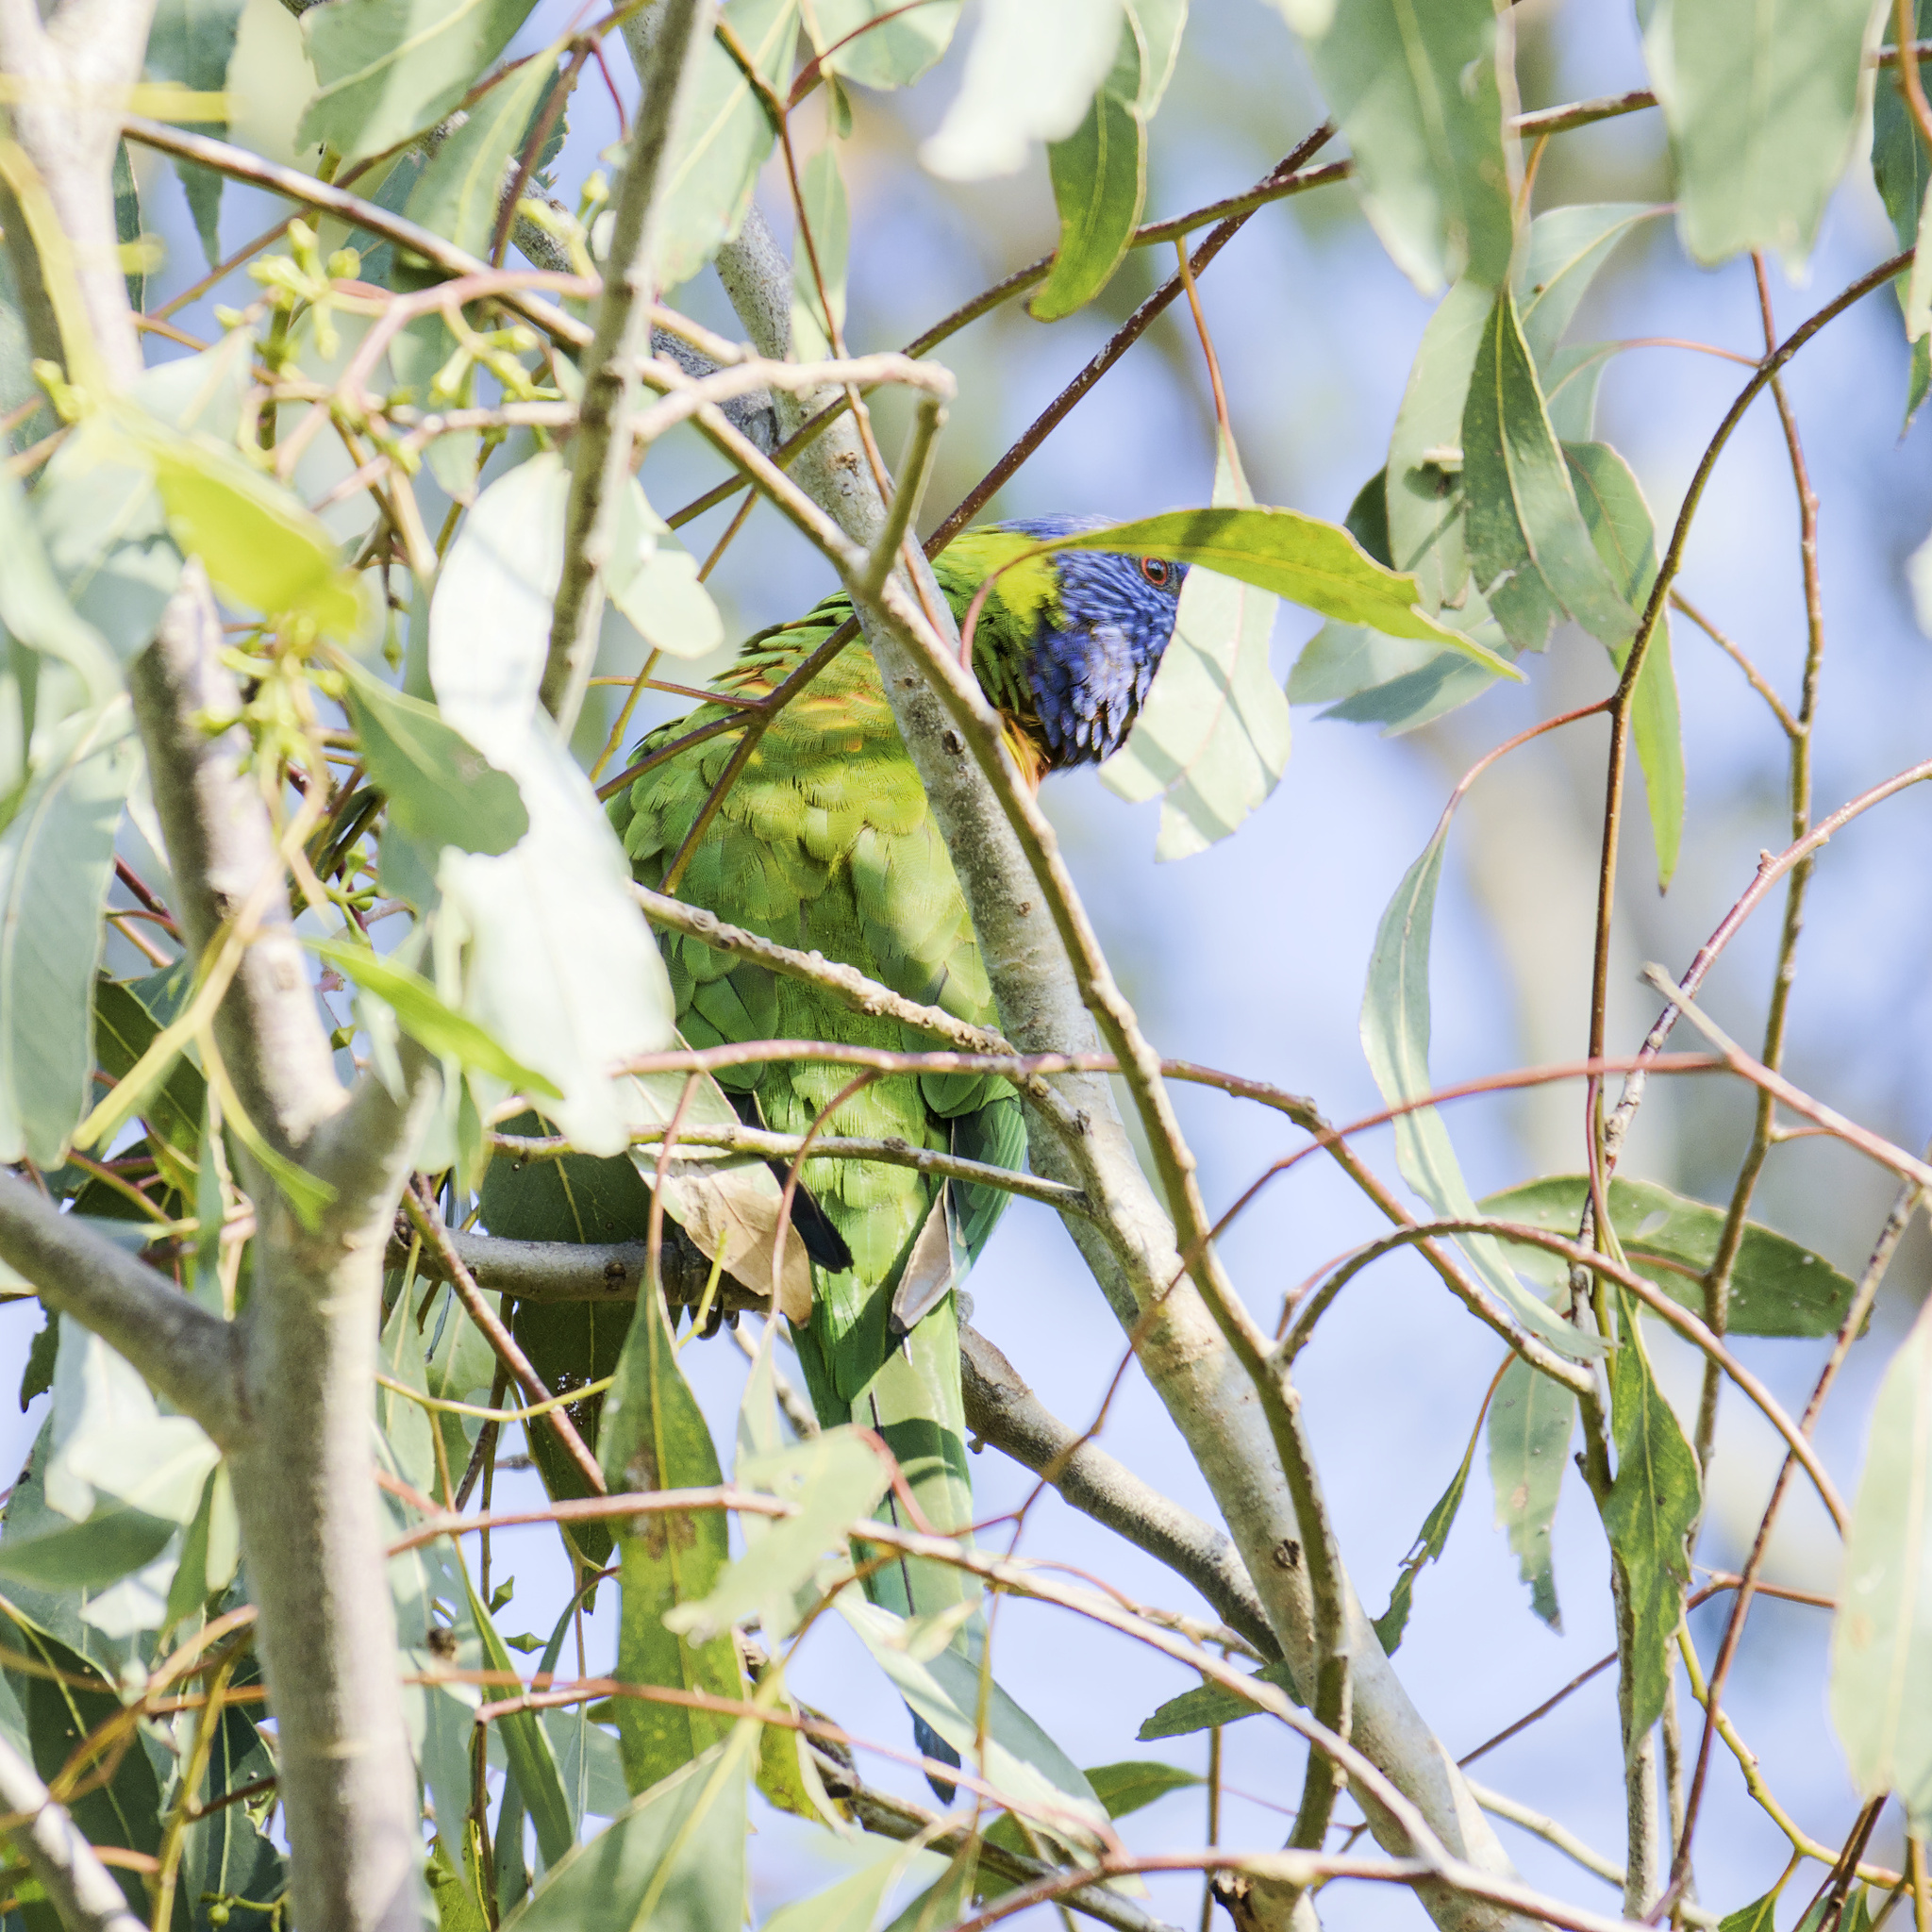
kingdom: Animalia
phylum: Chordata
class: Aves
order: Psittaciformes
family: Psittacidae
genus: Trichoglossus
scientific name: Trichoglossus haematodus
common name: Coconut lorikeet
